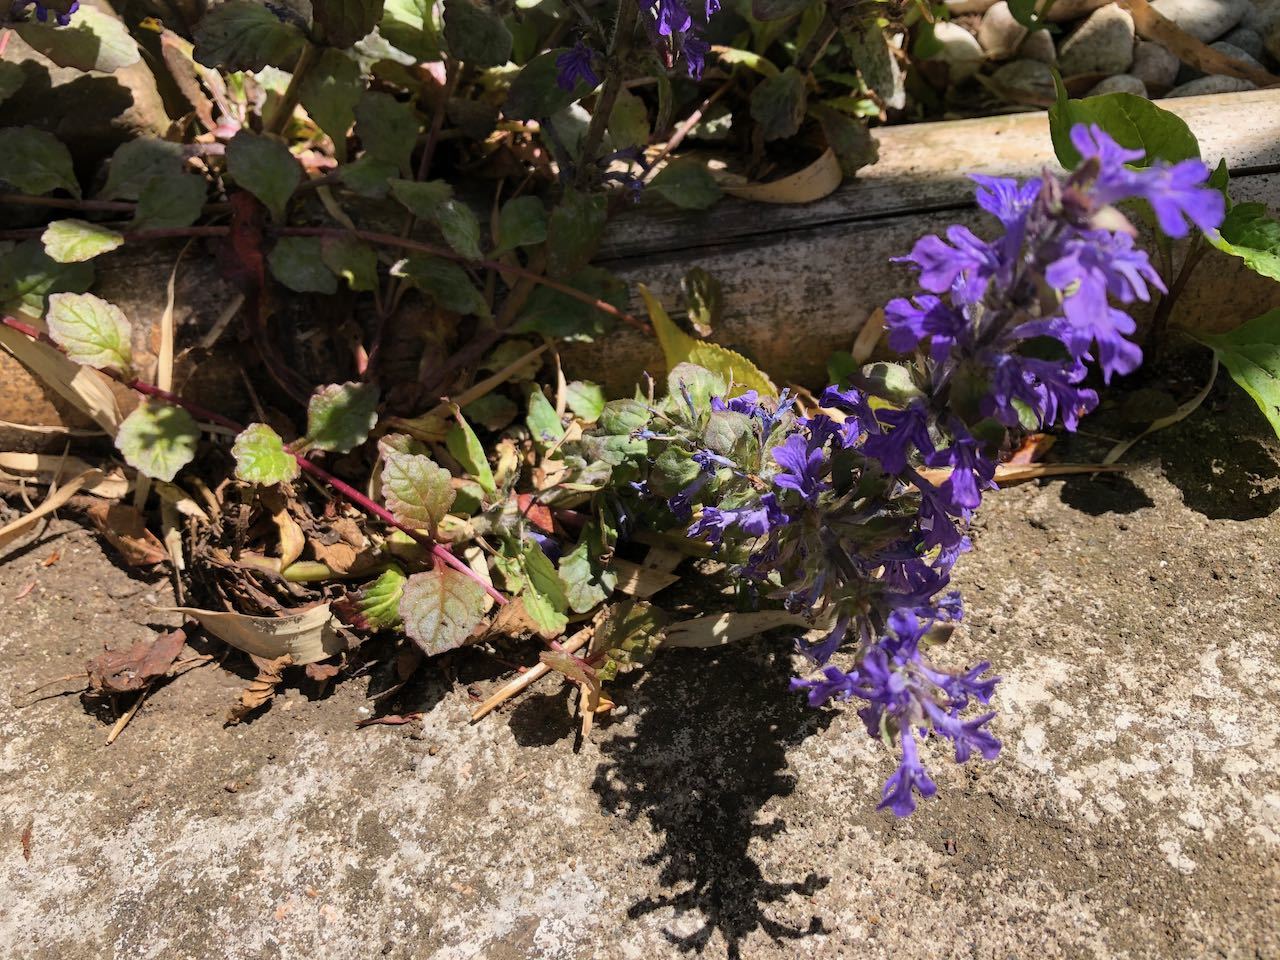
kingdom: Plantae
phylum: Tracheophyta
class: Magnoliopsida
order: Lamiales
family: Lamiaceae
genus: Ajuga
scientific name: Ajuga reptans
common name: Bugle
